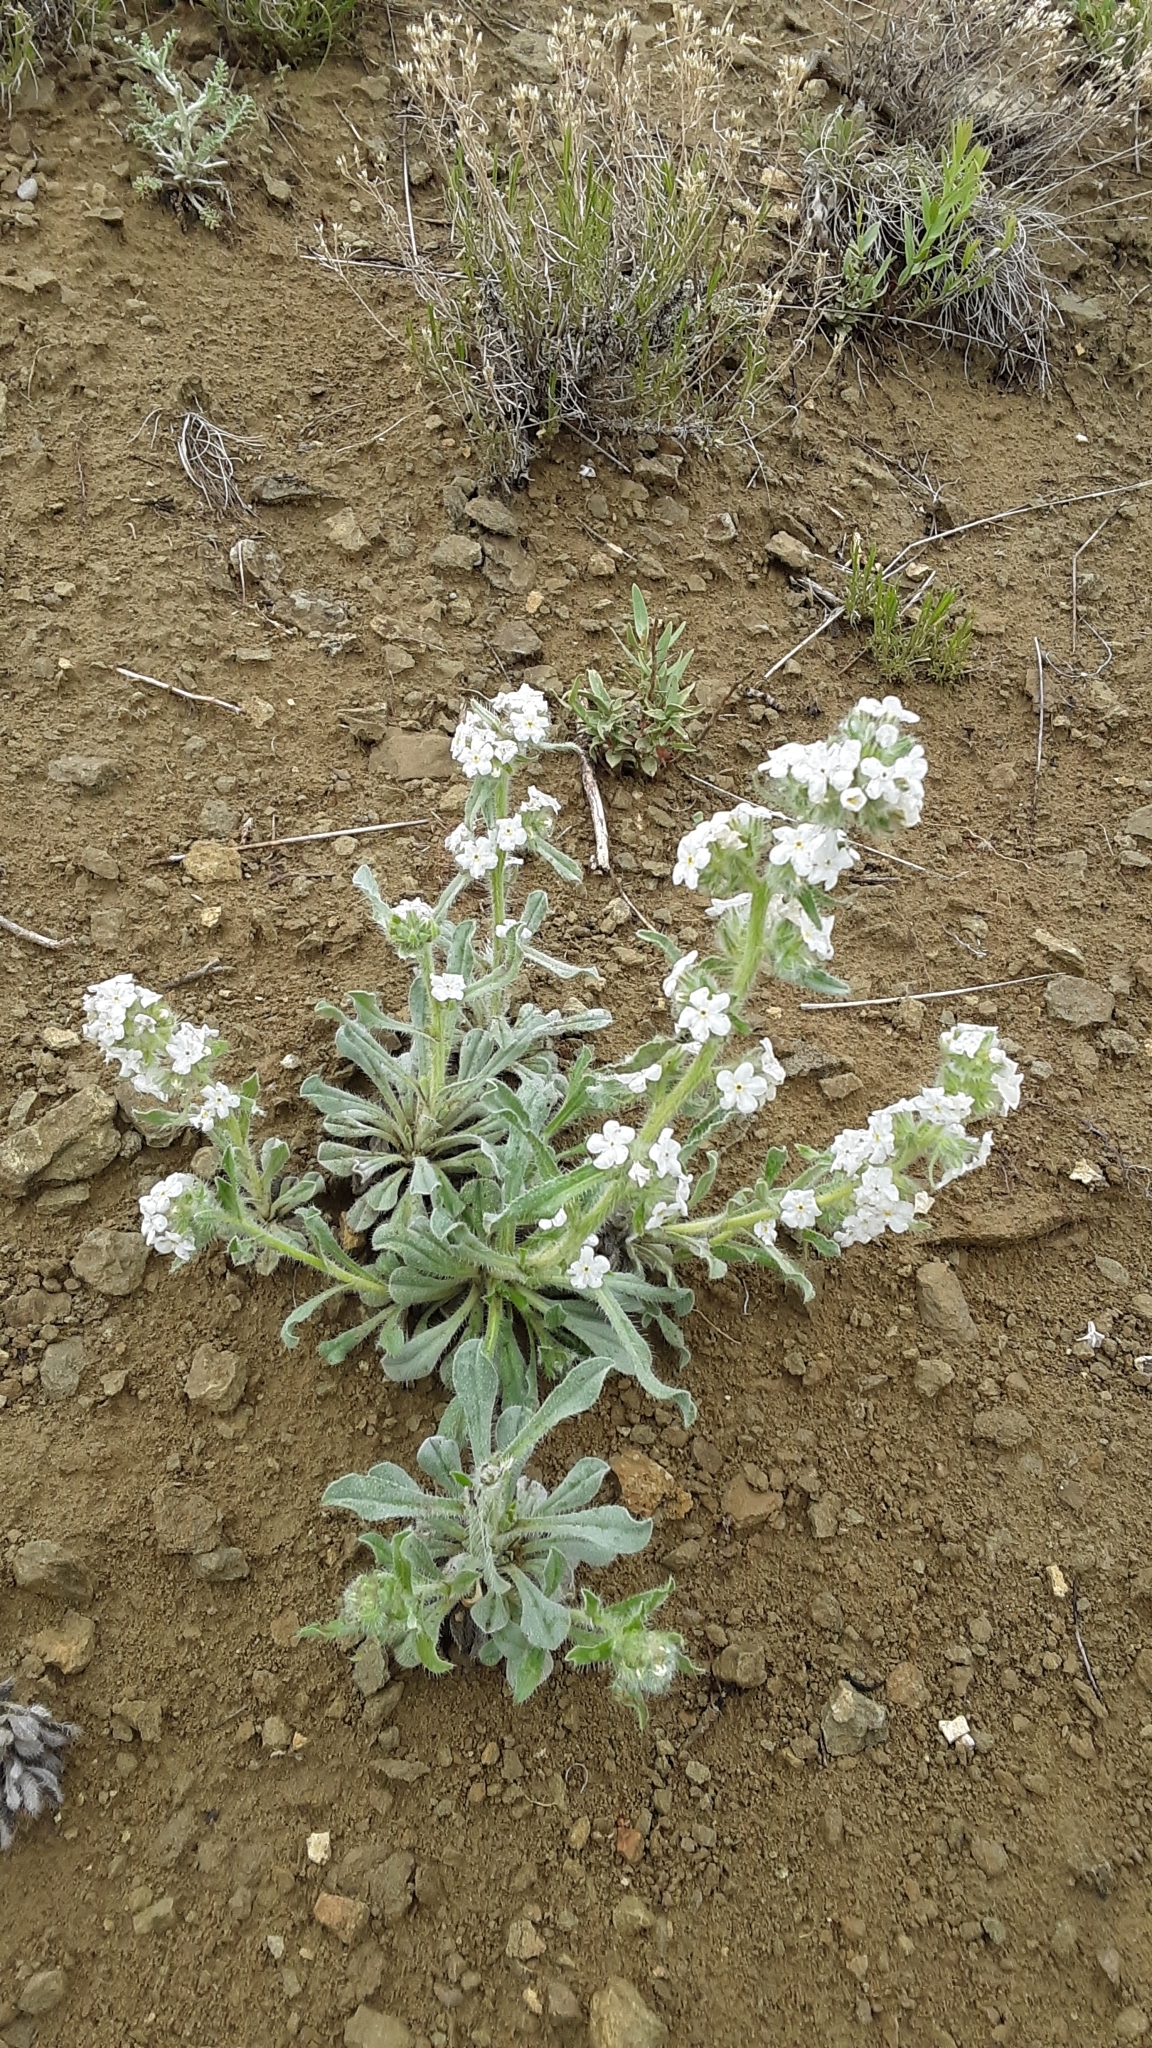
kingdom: Plantae
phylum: Tracheophyta
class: Magnoliopsida
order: Boraginales
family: Boraginaceae
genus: Oreocarya
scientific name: Oreocarya glomerata
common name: Macoun's cryptantha
